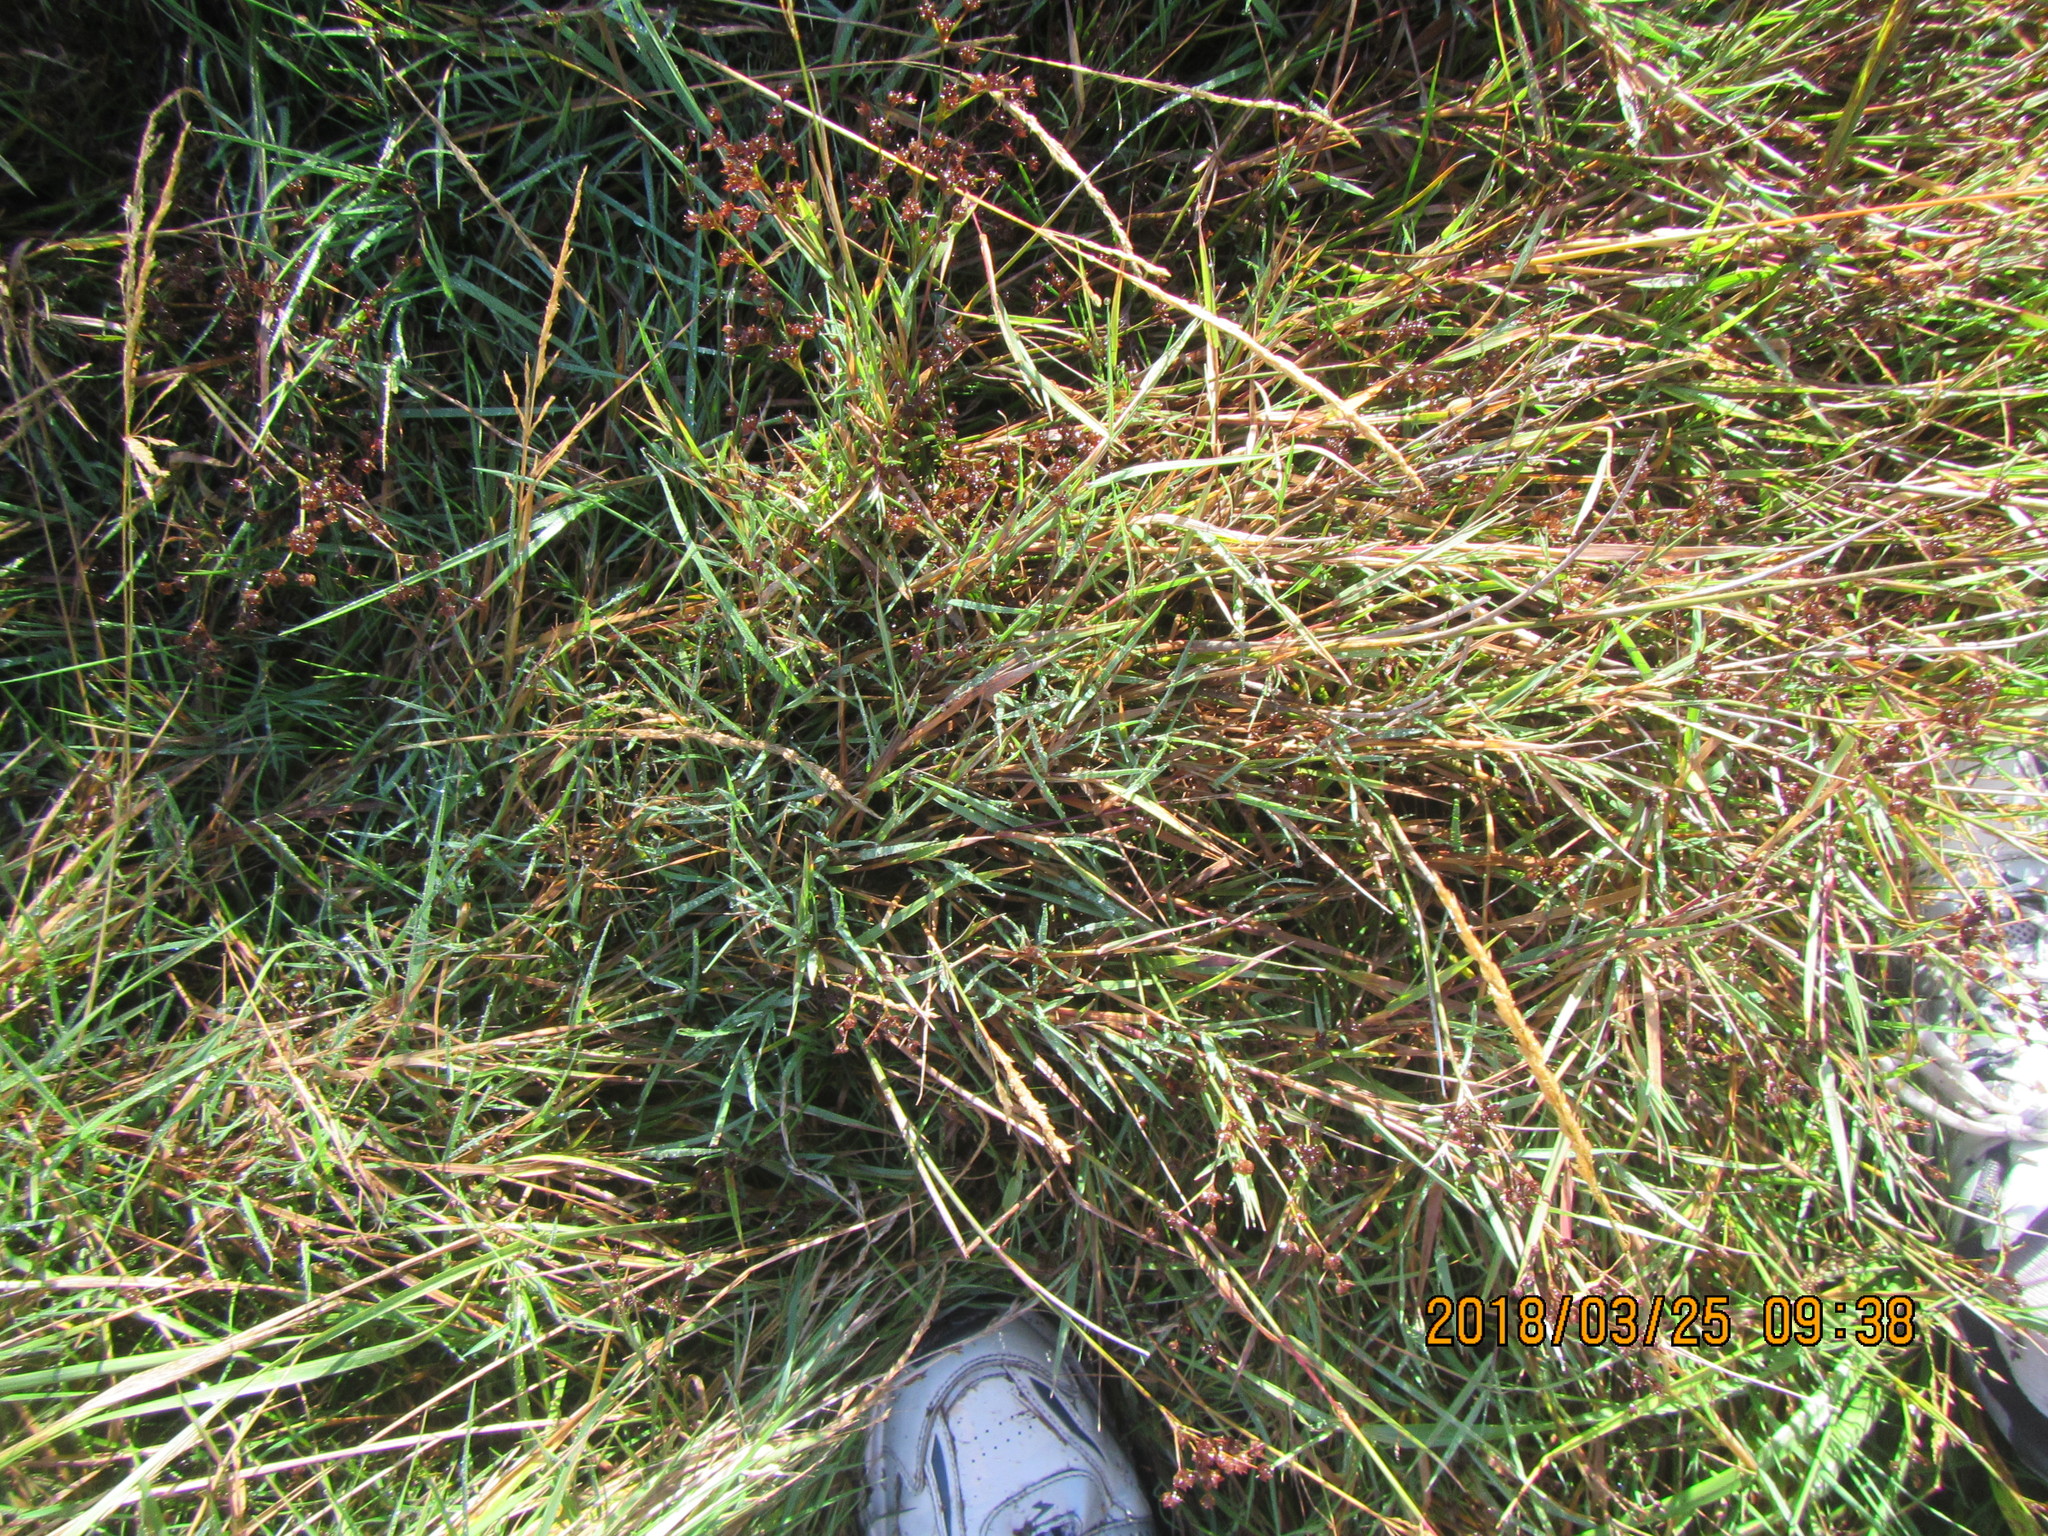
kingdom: Plantae
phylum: Tracheophyta
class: Liliopsida
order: Poales
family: Juncaceae
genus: Juncus
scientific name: Juncus articulatus
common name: Jointed rush
